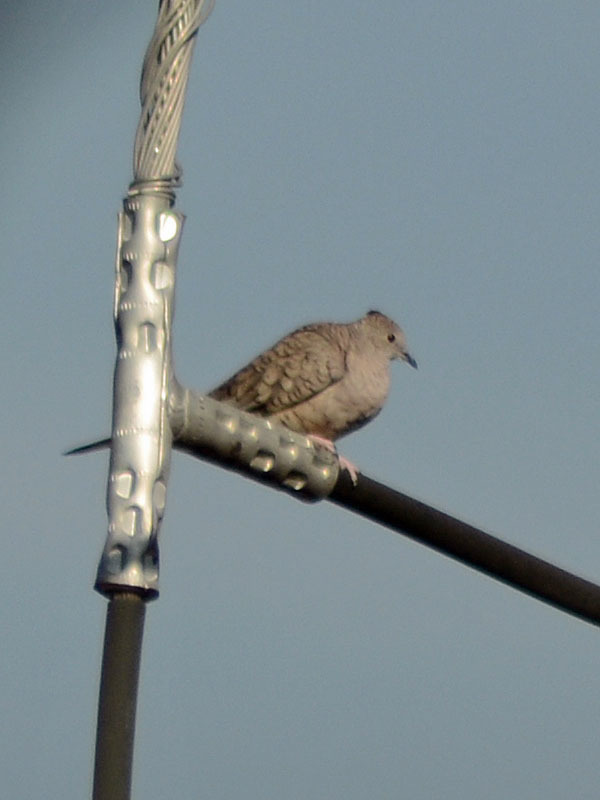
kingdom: Animalia
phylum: Chordata
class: Aves
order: Columbiformes
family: Columbidae
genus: Columbina
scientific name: Columbina inca
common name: Inca dove
